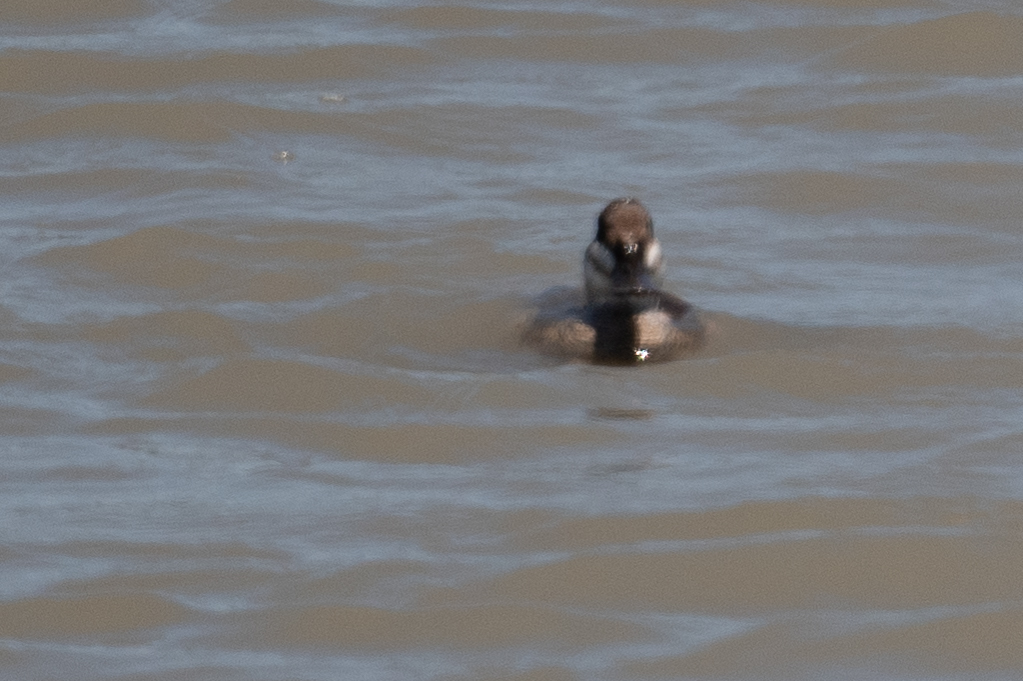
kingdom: Animalia
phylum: Chordata
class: Aves
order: Anseriformes
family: Anatidae
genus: Oxyura
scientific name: Oxyura jamaicensis
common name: Ruddy duck
